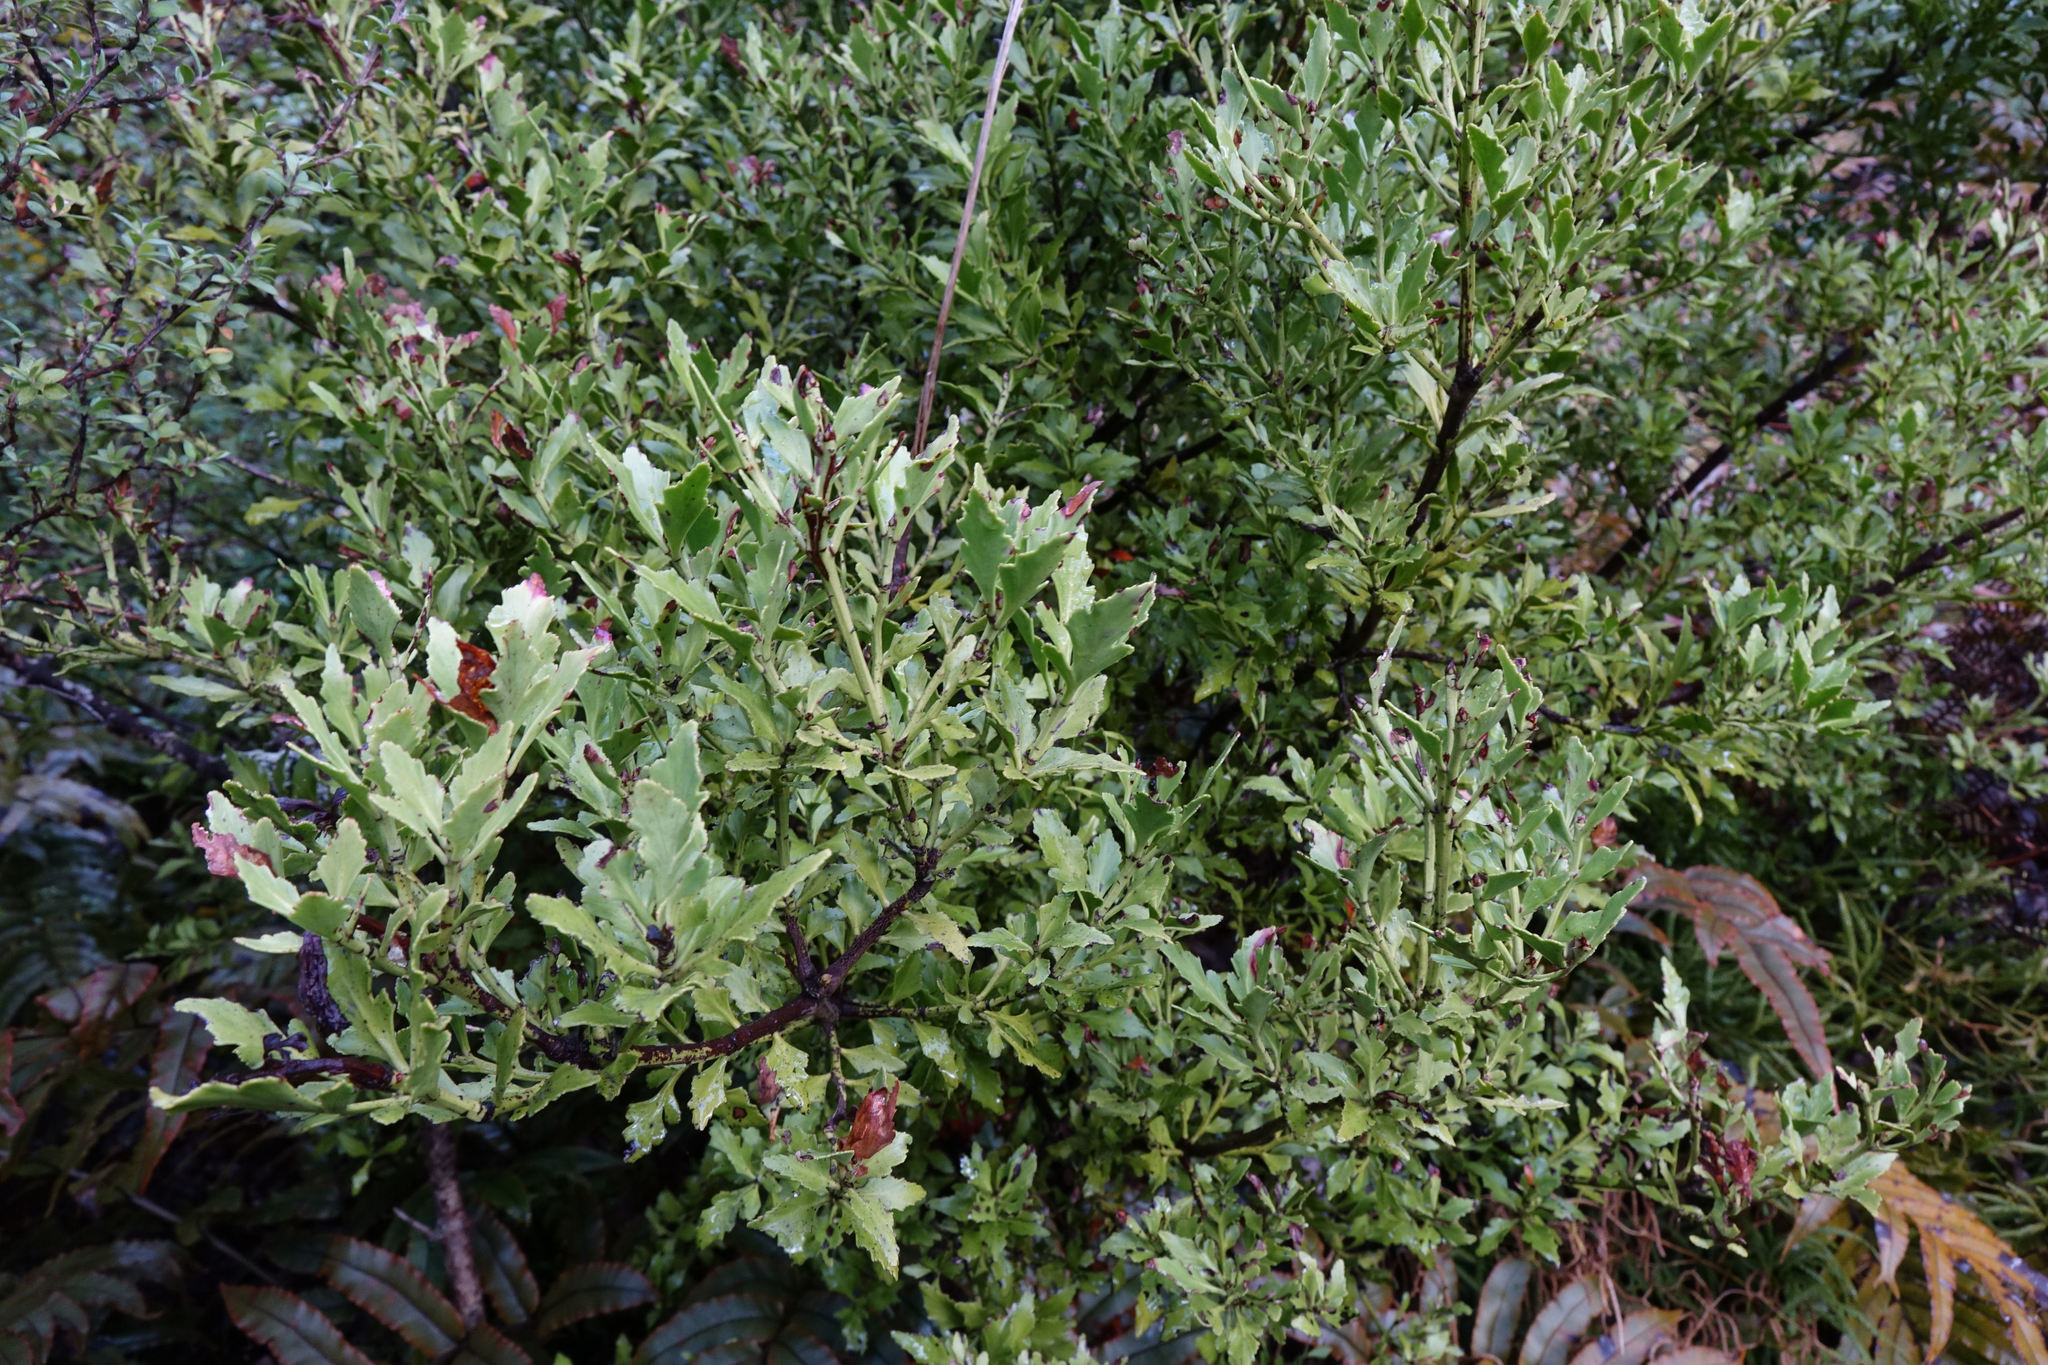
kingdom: Plantae
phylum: Tracheophyta
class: Pinopsida
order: Pinales
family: Phyllocladaceae
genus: Phyllocladus
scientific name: Phyllocladus trichomanoides
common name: Celery pine
